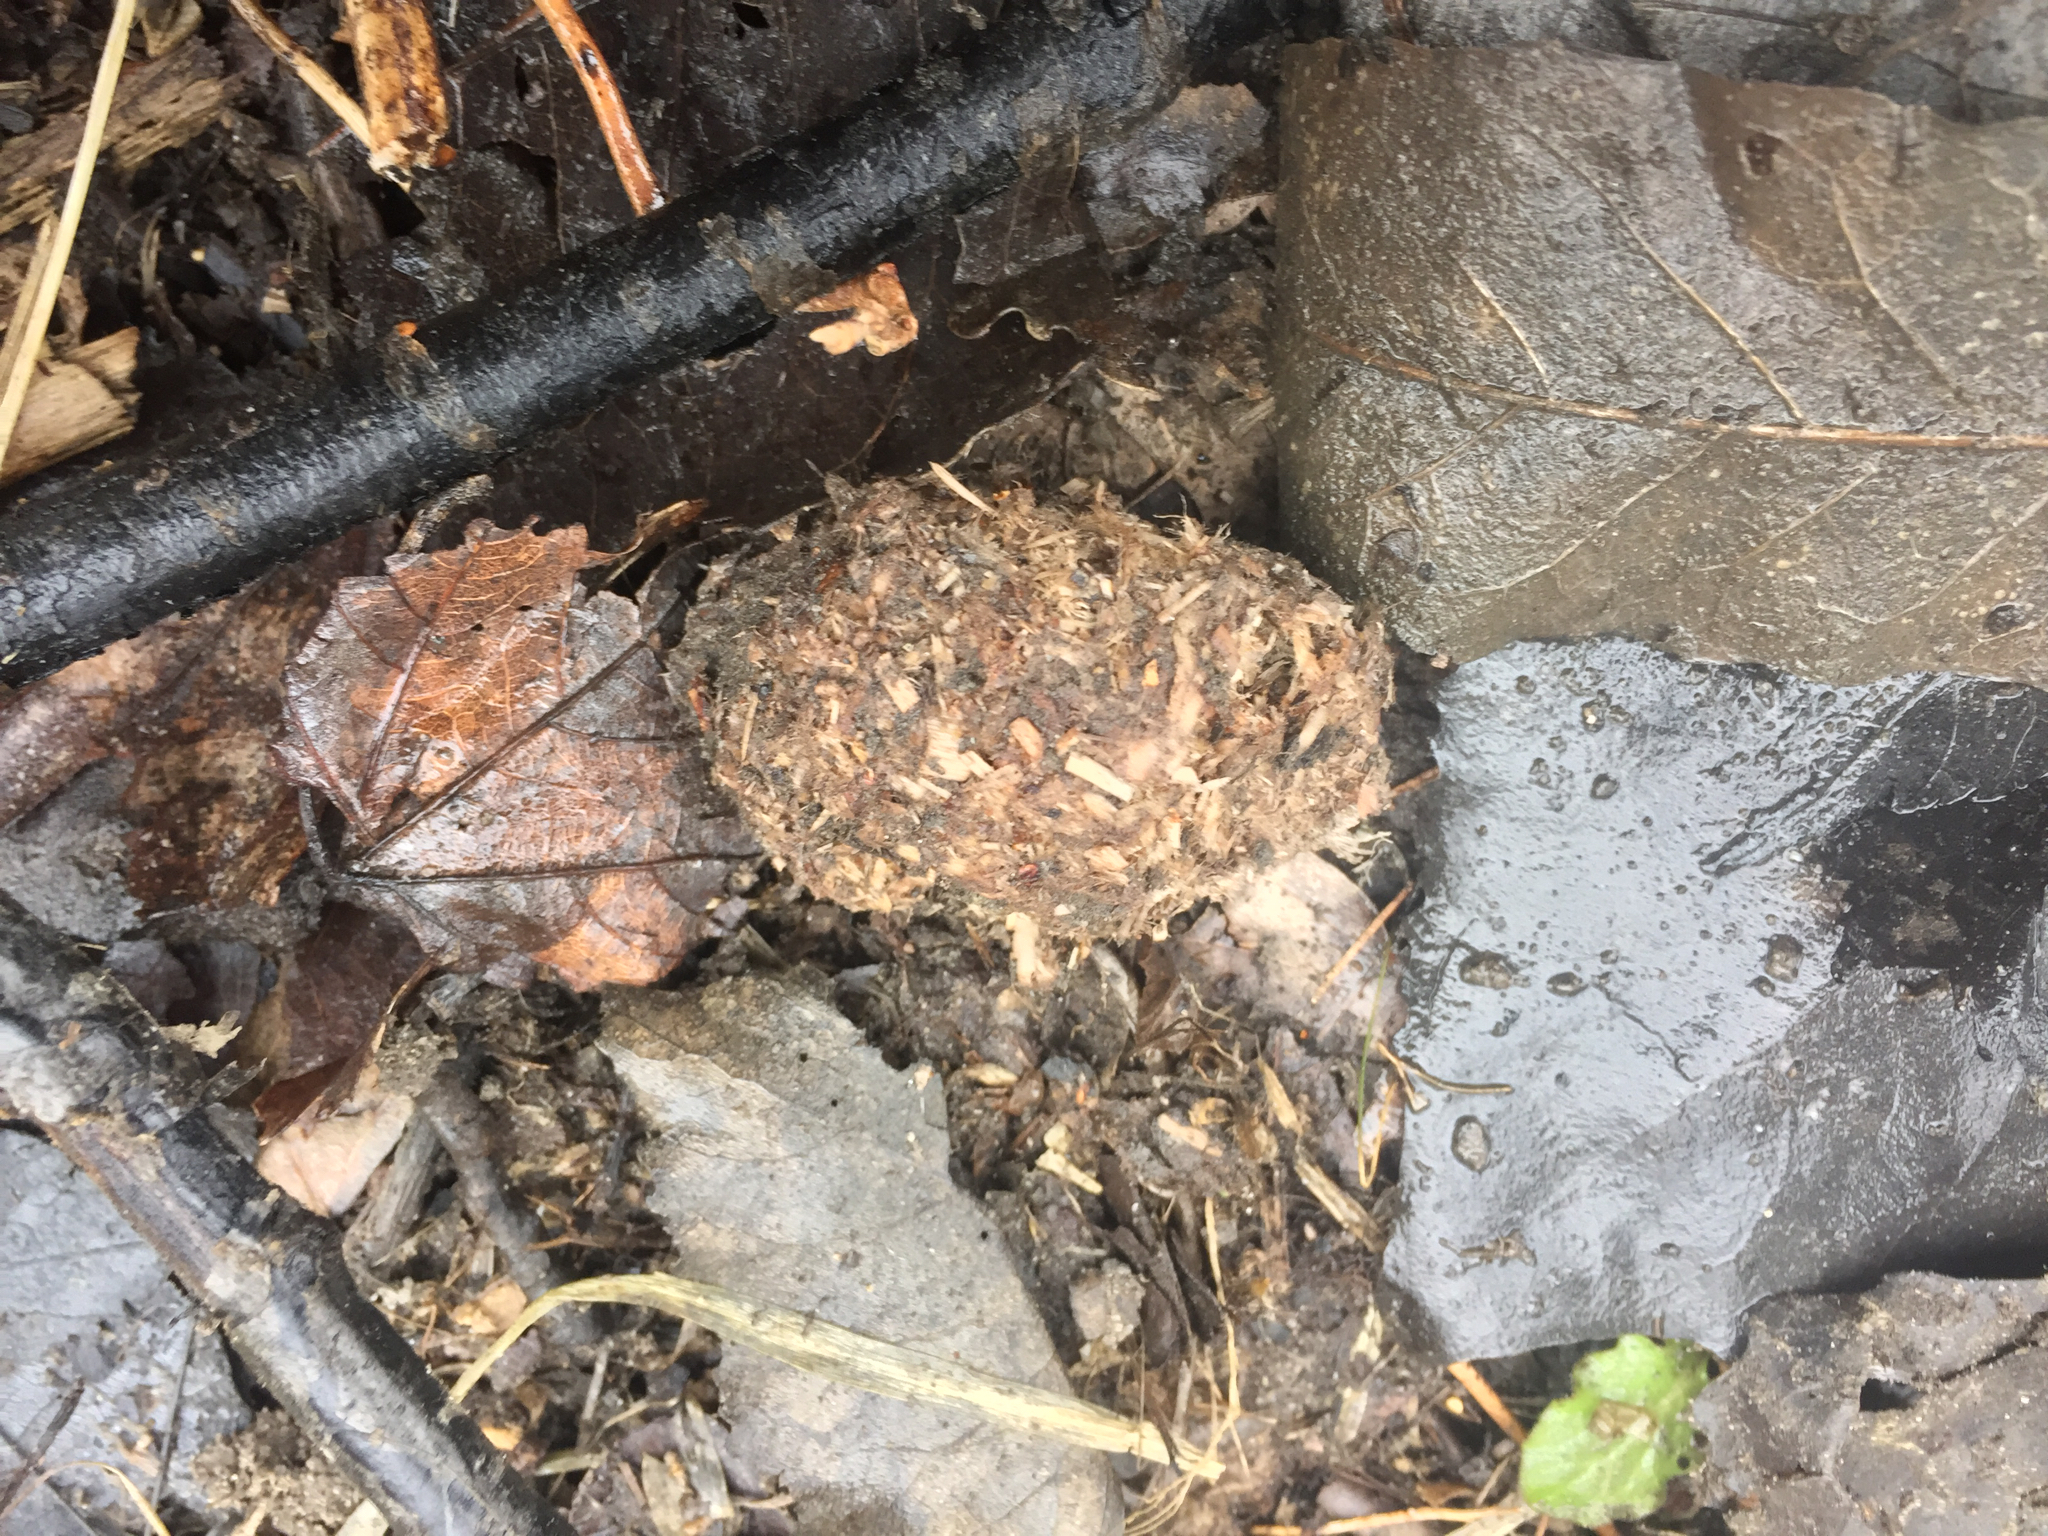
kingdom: Animalia
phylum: Chordata
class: Mammalia
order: Rodentia
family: Castoridae
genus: Castor
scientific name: Castor canadensis
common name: American beaver
